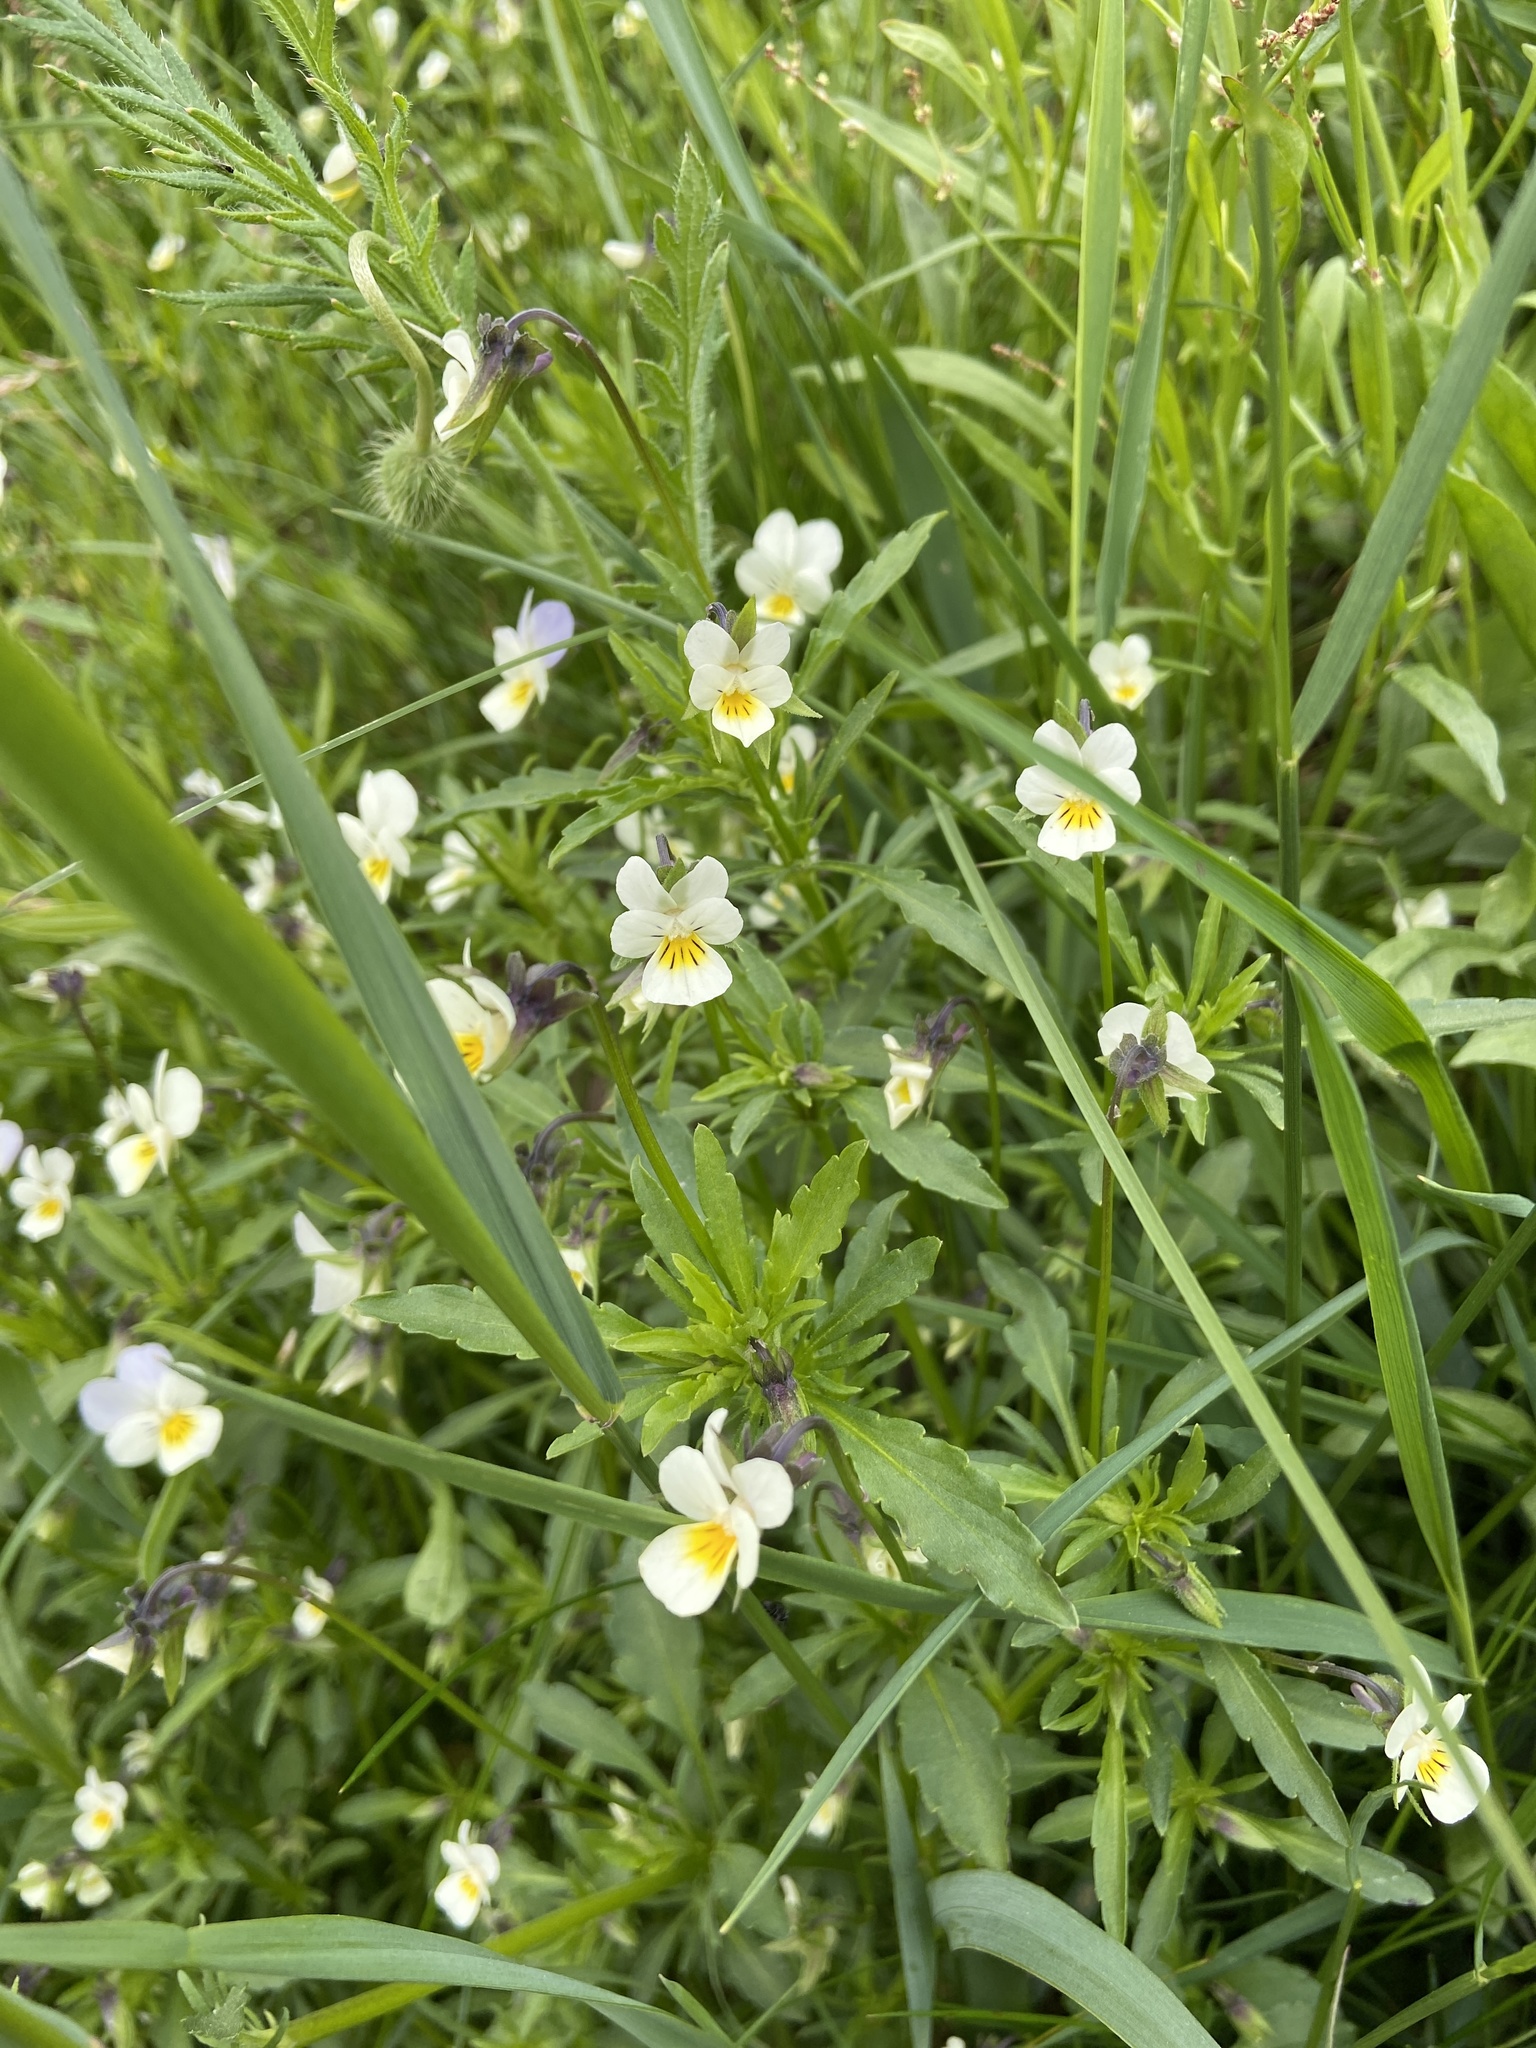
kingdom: Plantae
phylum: Tracheophyta
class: Magnoliopsida
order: Malpighiales
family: Violaceae
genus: Viola
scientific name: Viola arvensis
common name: Field pansy
